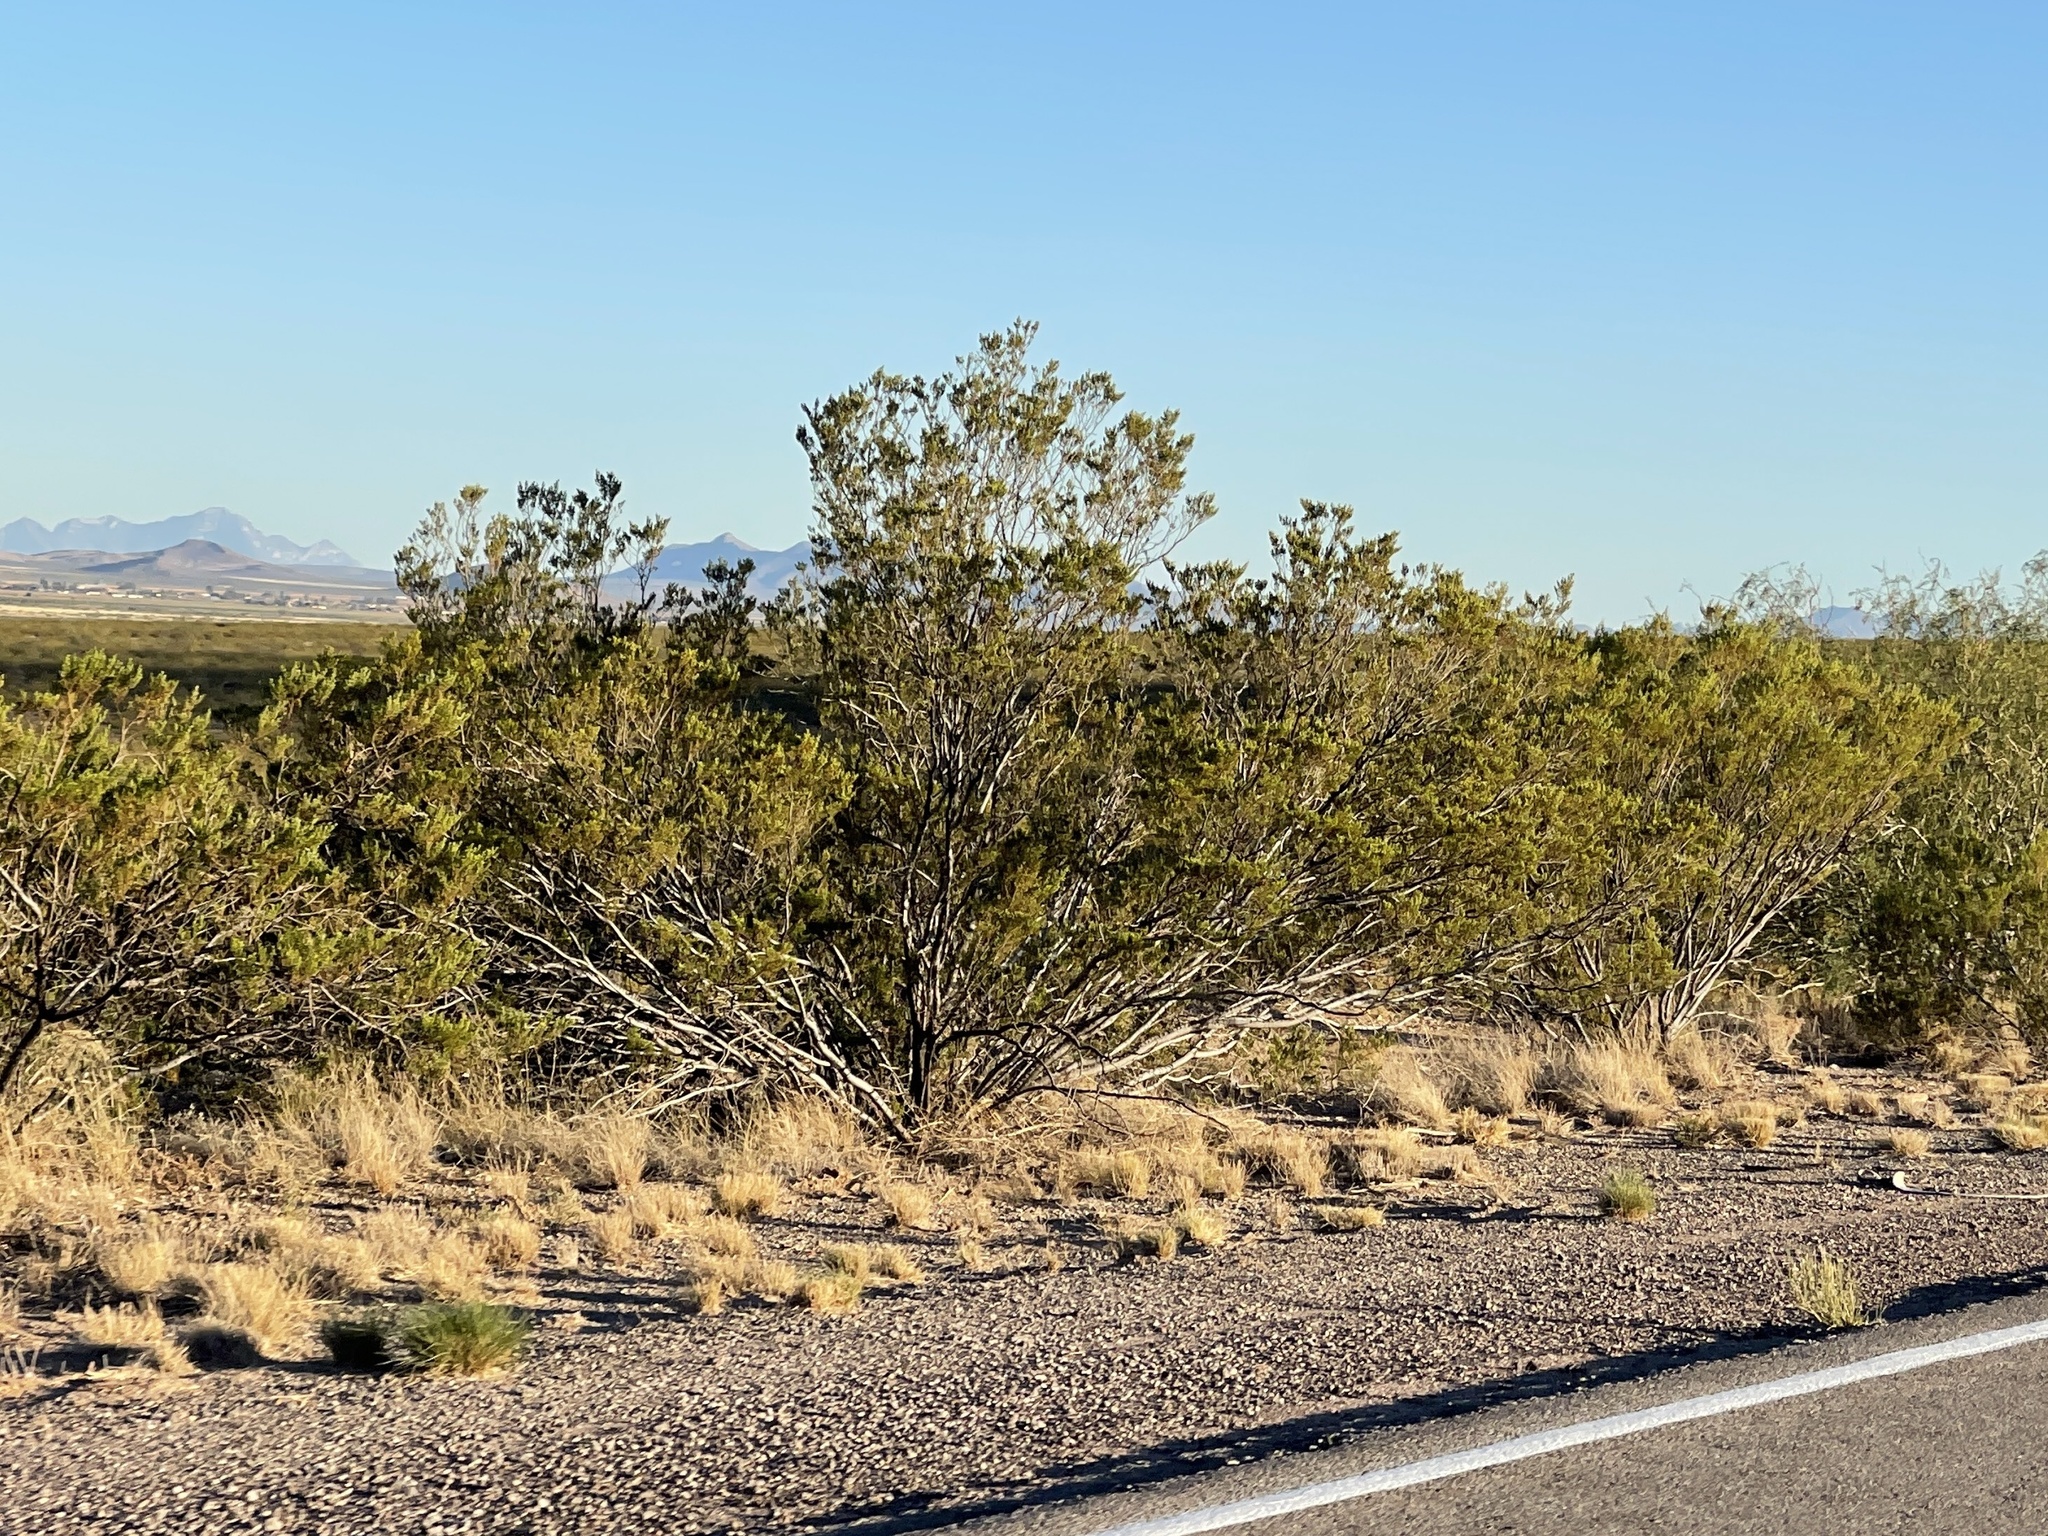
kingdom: Plantae
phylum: Tracheophyta
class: Magnoliopsida
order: Zygophyllales
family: Zygophyllaceae
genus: Larrea
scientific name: Larrea tridentata
